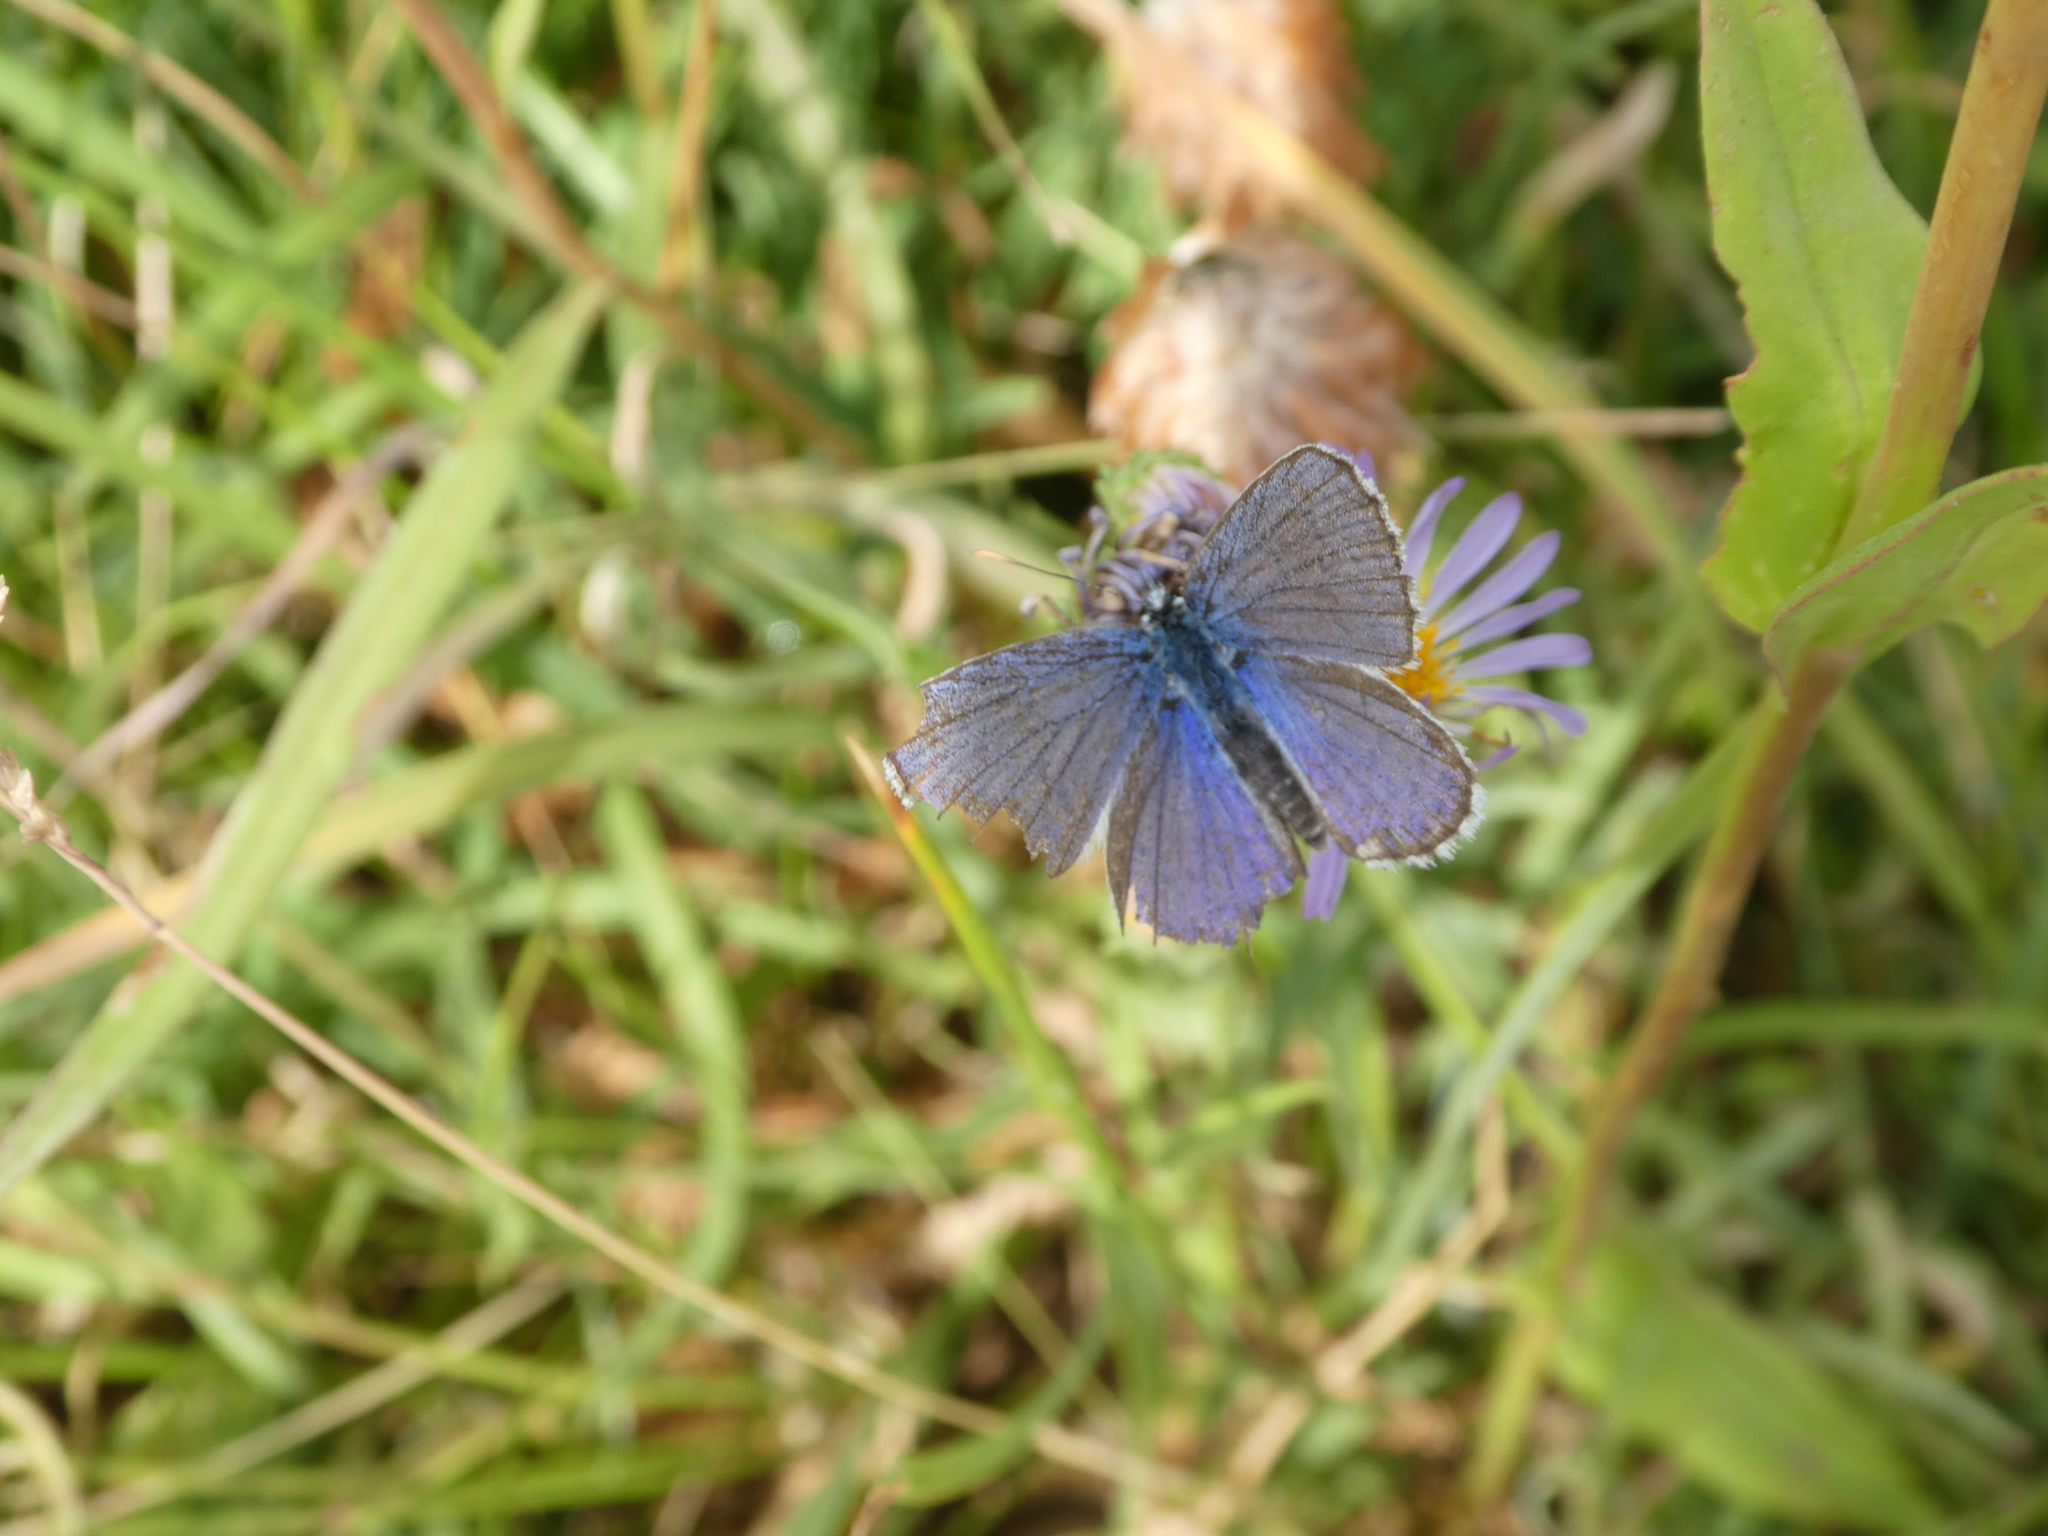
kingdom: Animalia
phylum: Arthropoda
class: Insecta
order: Lepidoptera
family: Lycaenidae
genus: Lycaeides
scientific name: Lycaeides melissa
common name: Melissa blue
